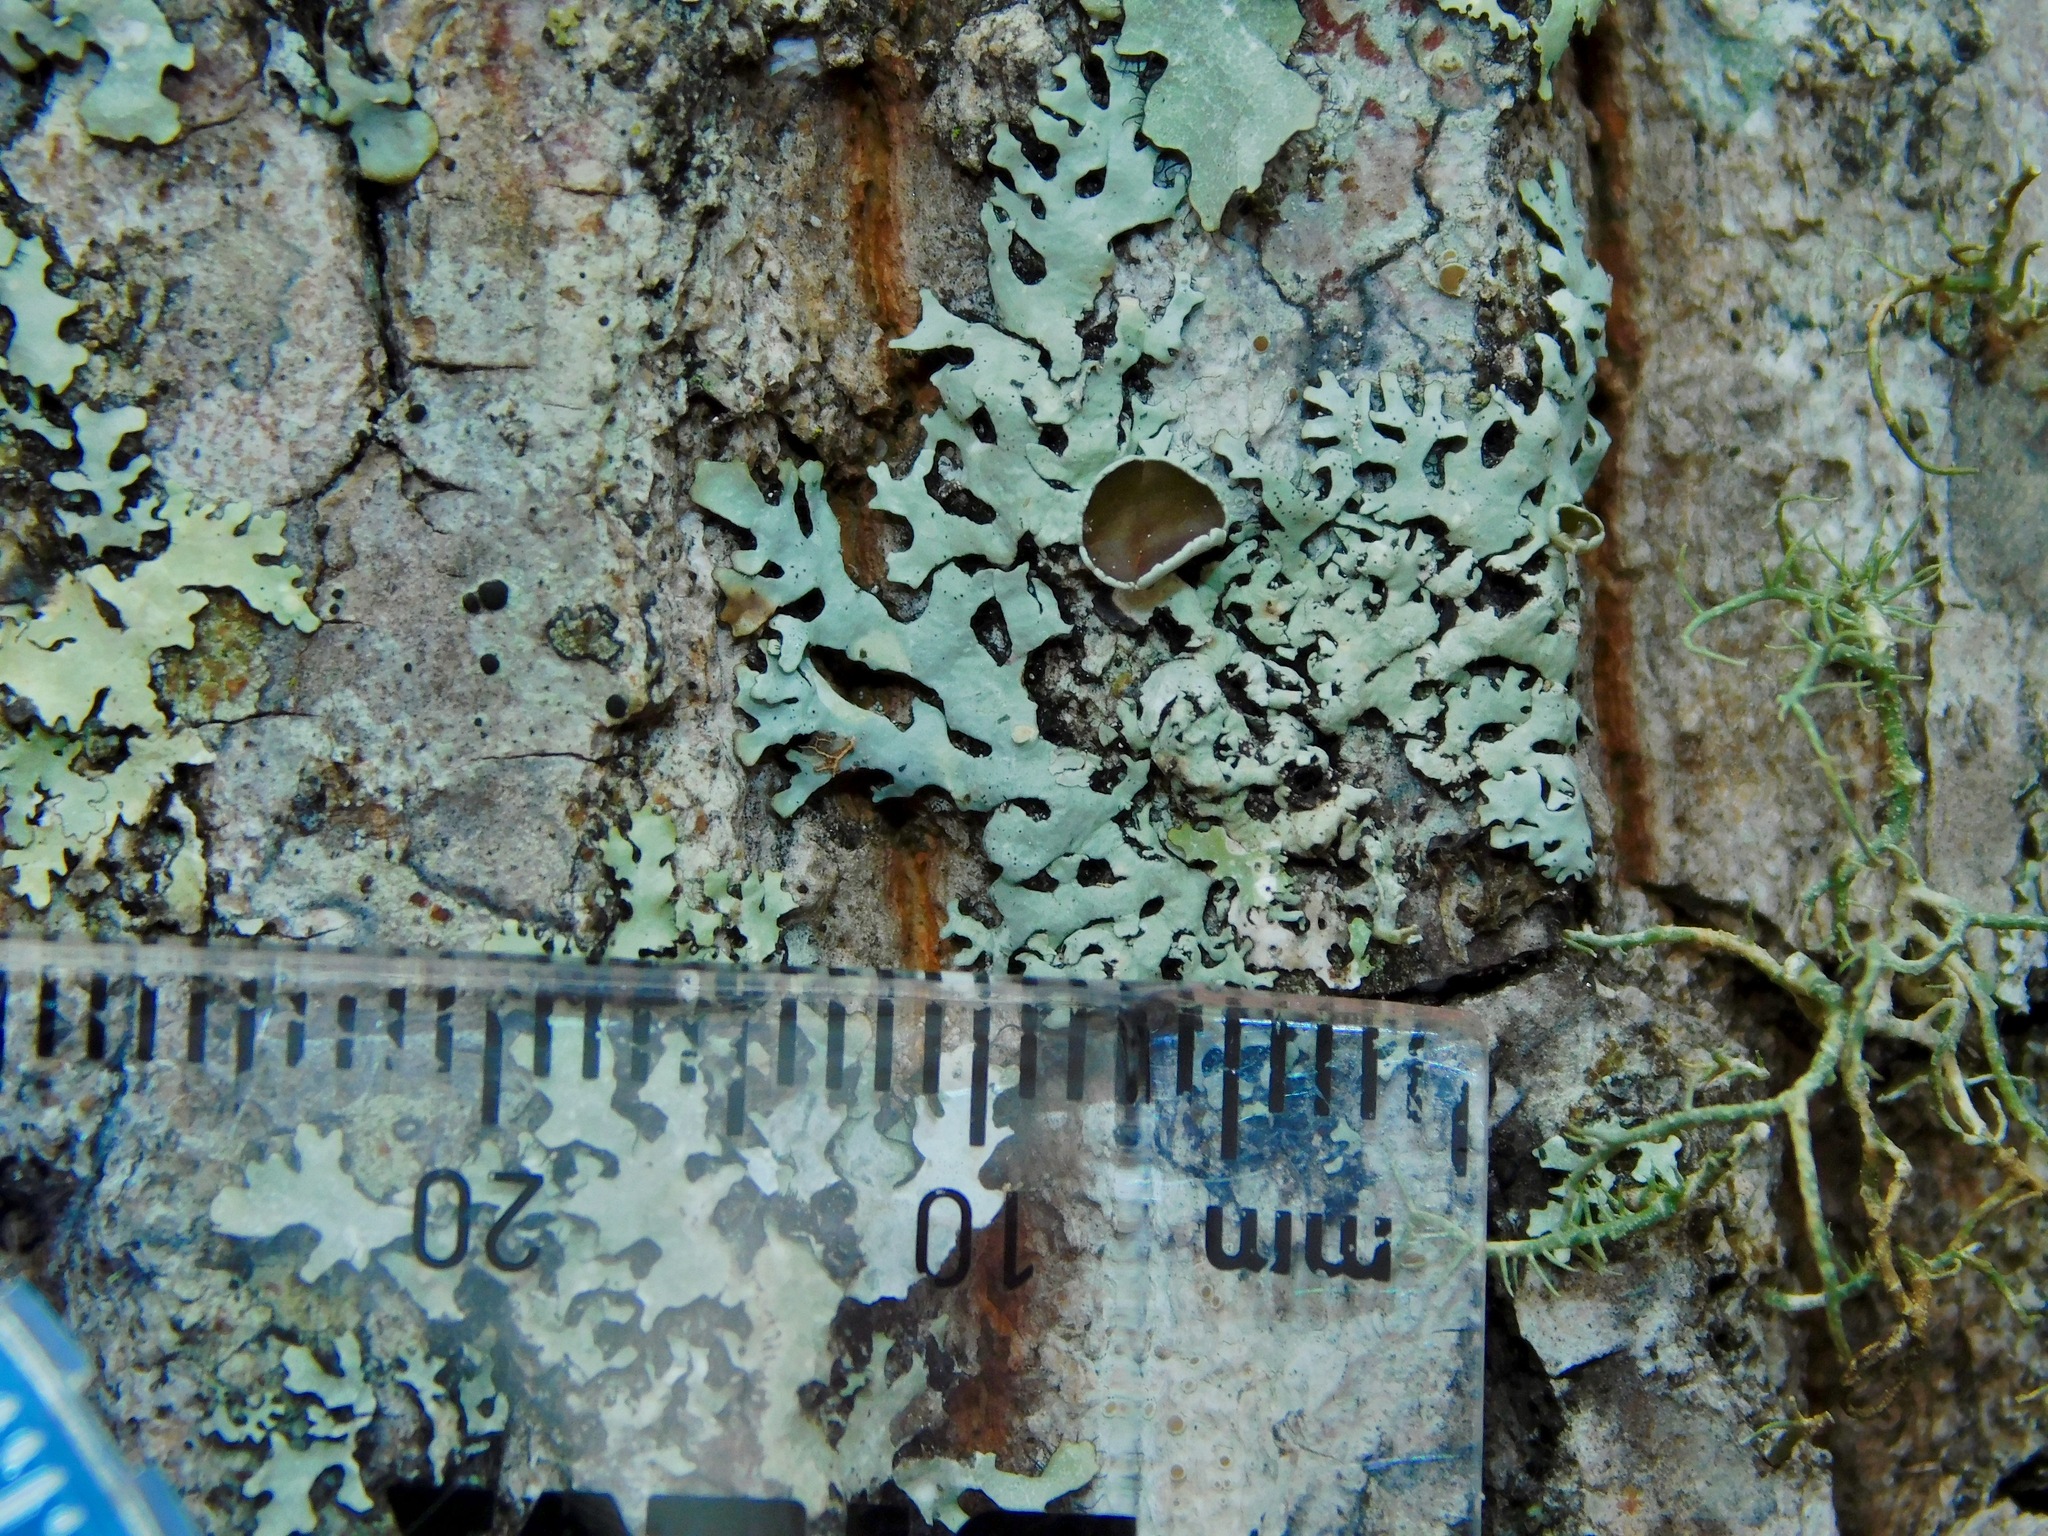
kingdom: Fungi
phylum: Ascomycota
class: Lecanoromycetes
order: Lecanorales
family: Parmeliaceae
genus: Hypotrachyna
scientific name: Hypotrachyna livida
